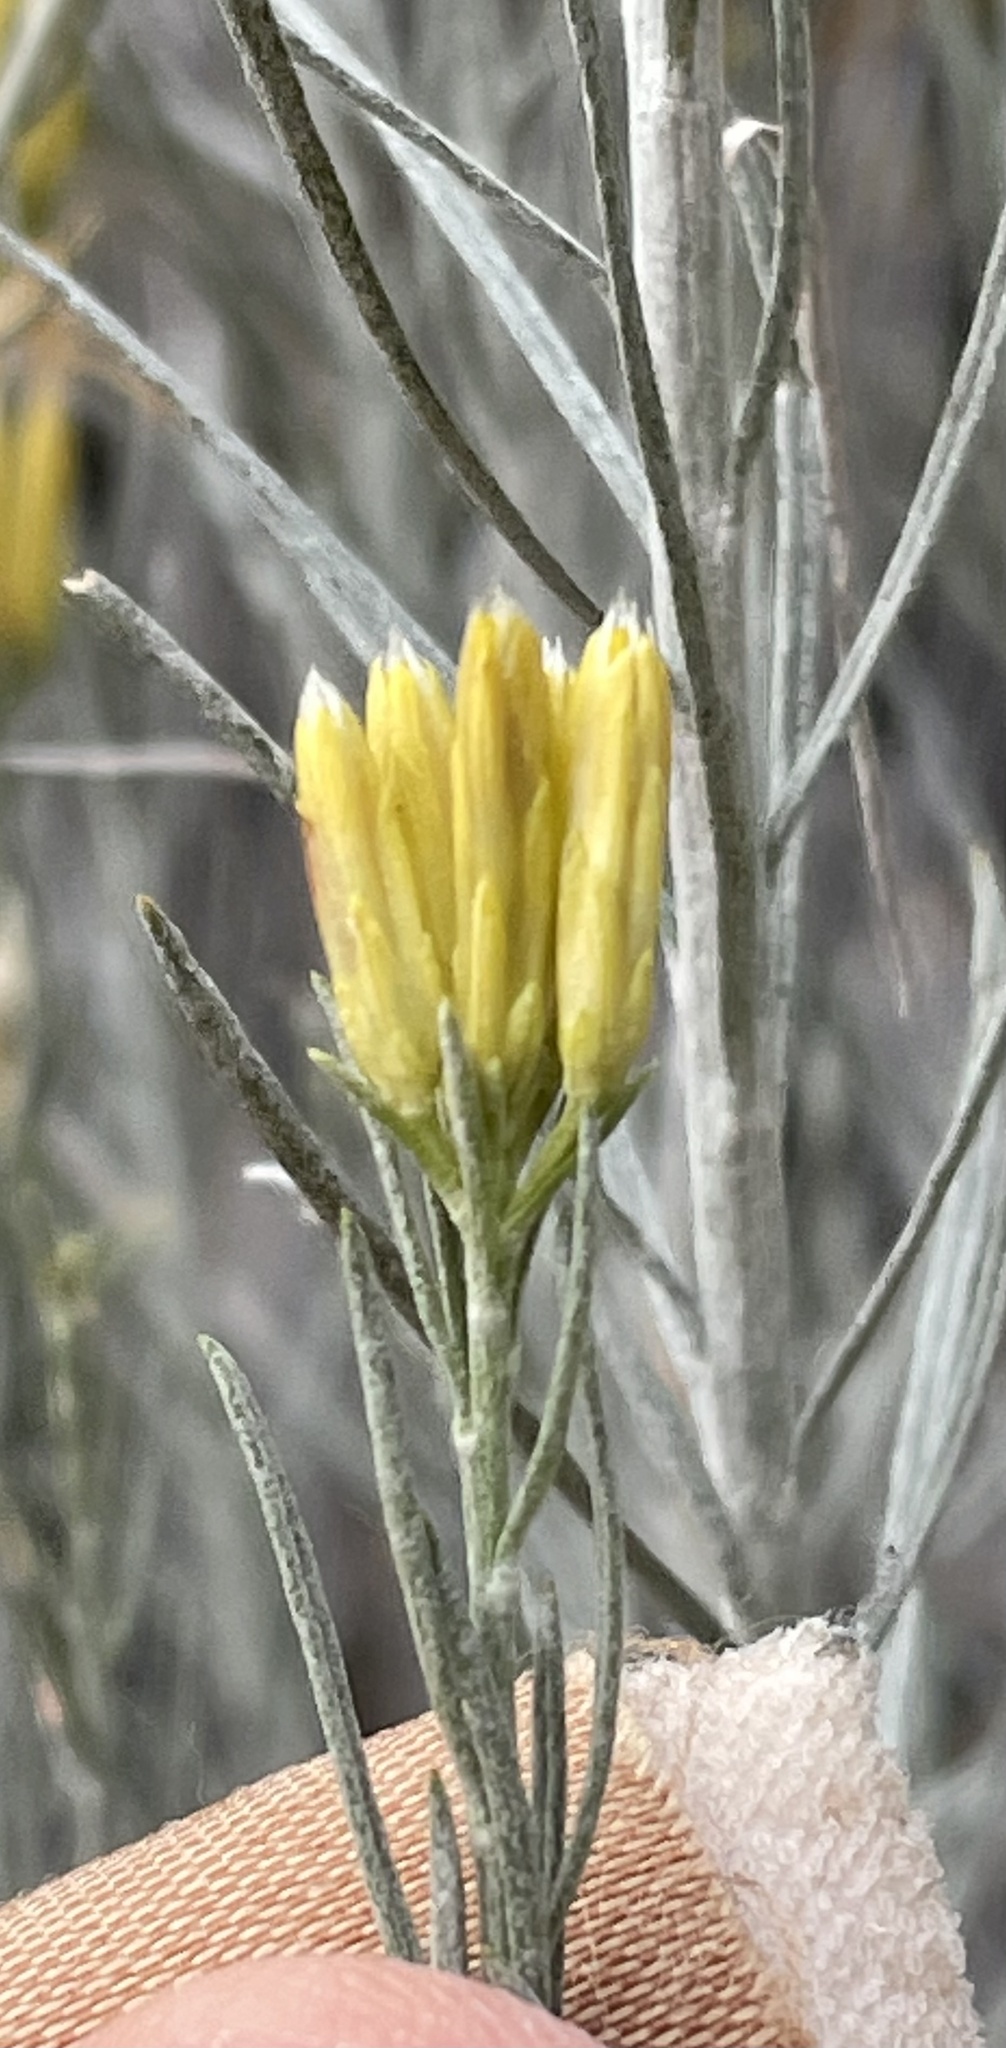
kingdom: Plantae
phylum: Tracheophyta
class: Magnoliopsida
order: Asterales
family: Asteraceae
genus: Ericameria
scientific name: Ericameria nauseosa
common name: Rubber rabbitbrush
